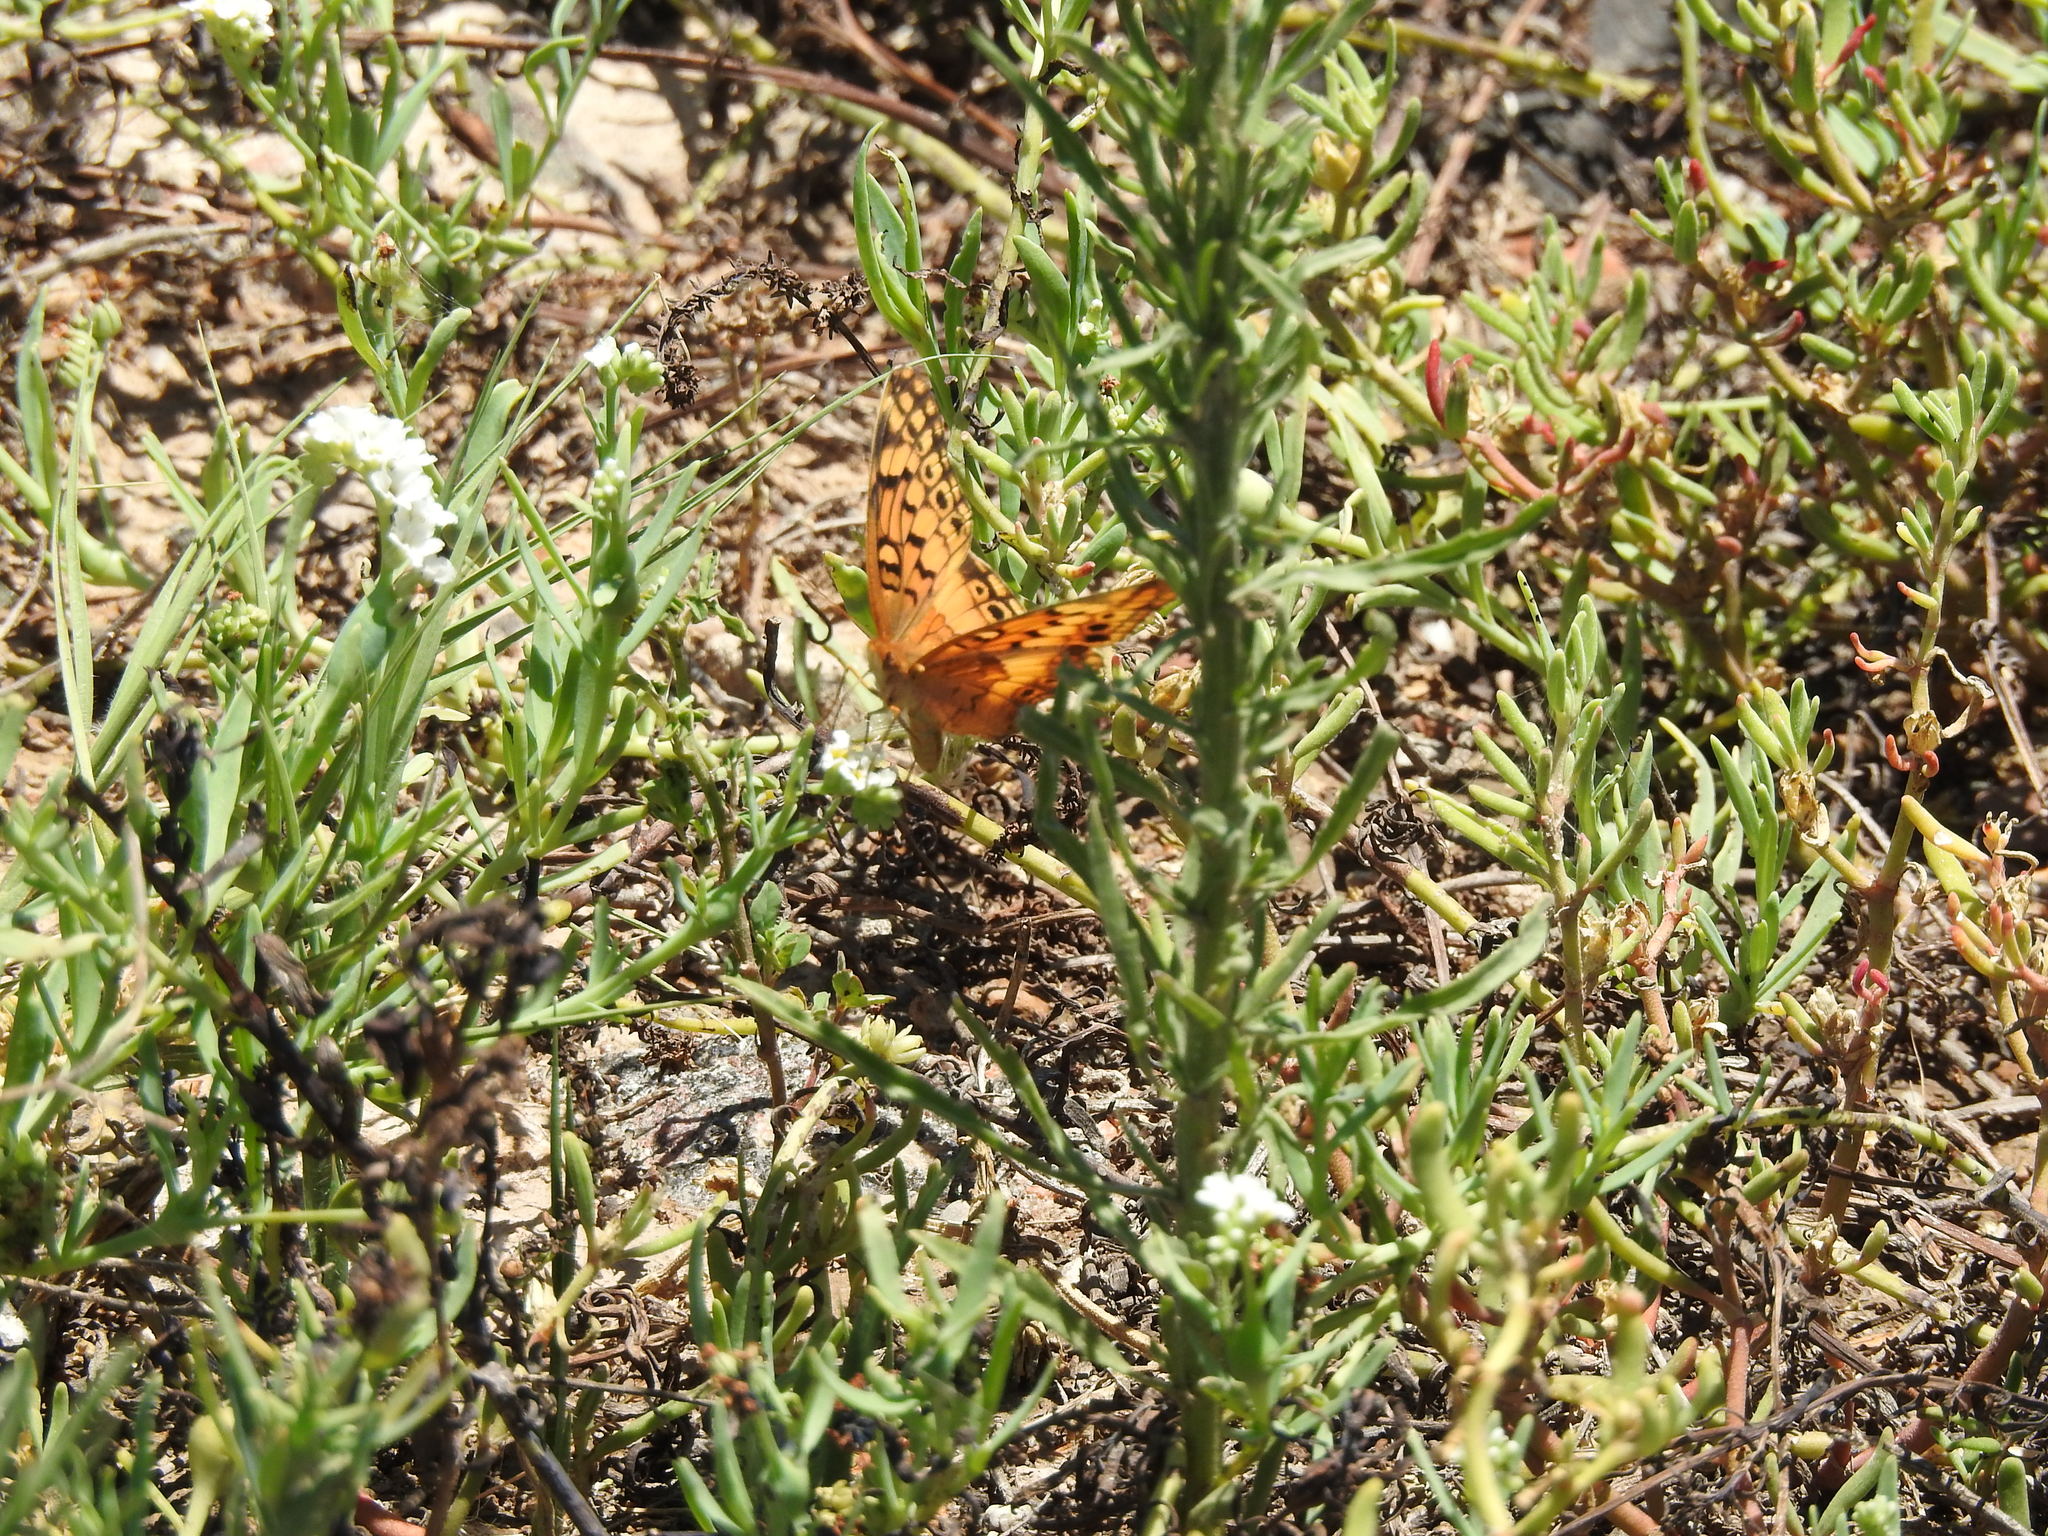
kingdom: Animalia
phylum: Arthropoda
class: Insecta
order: Lepidoptera
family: Nymphalidae
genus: Euptoieta
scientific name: Euptoieta hortensia
